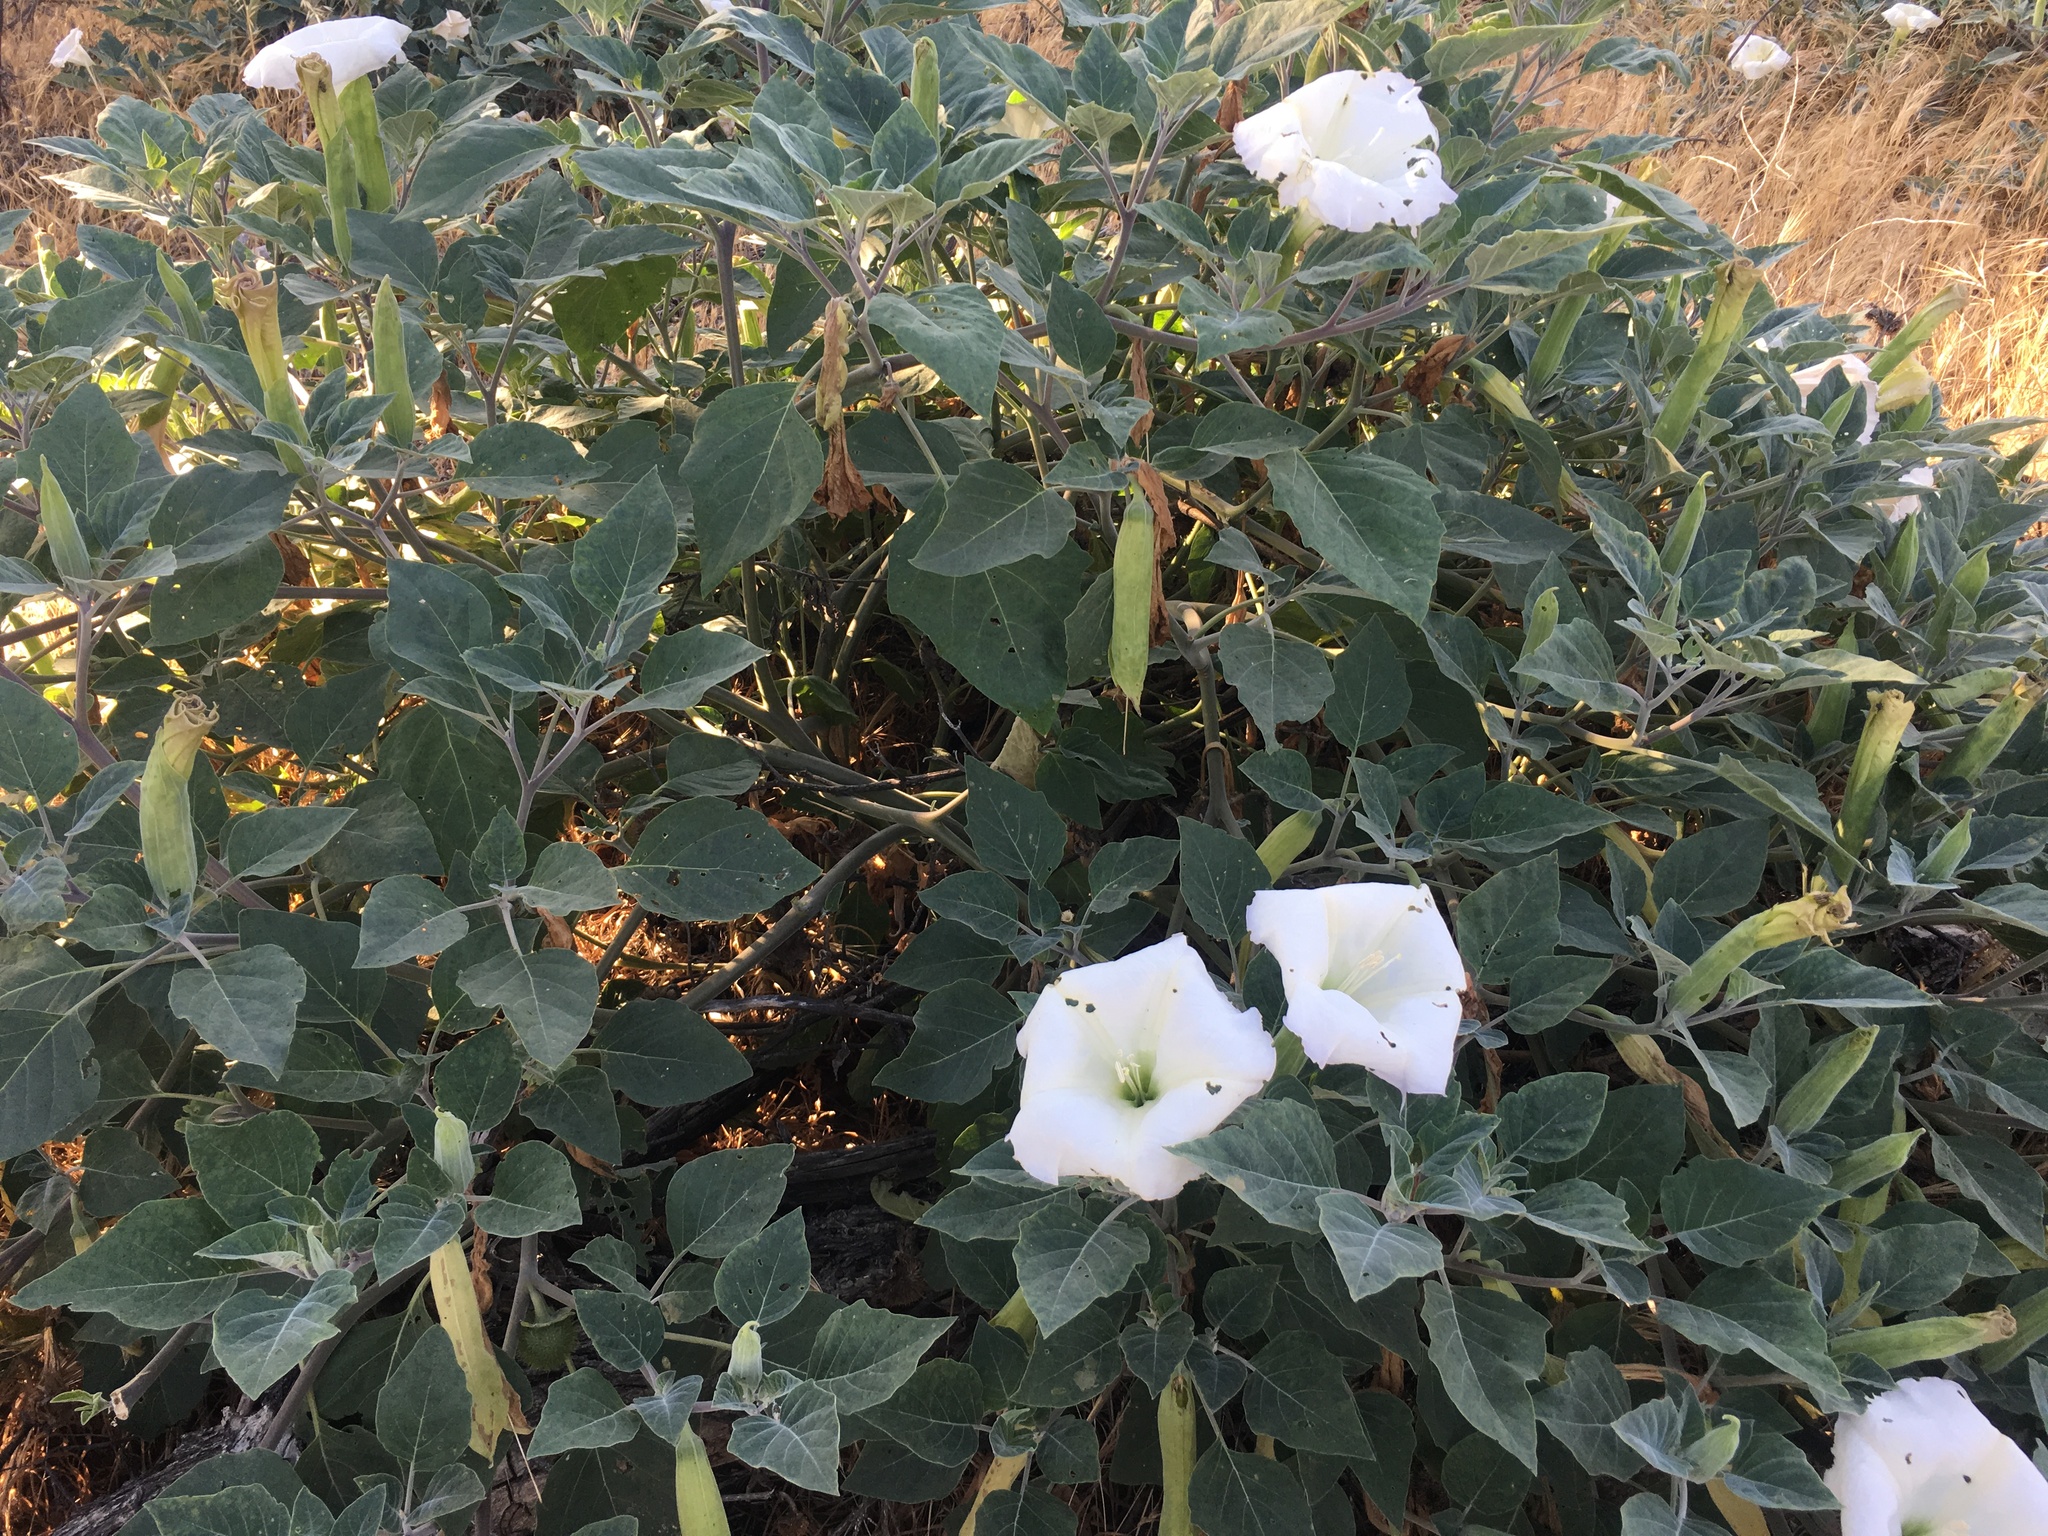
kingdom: Plantae
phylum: Tracheophyta
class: Magnoliopsida
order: Solanales
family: Solanaceae
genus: Datura
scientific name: Datura wrightii
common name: Sacred thorn-apple
